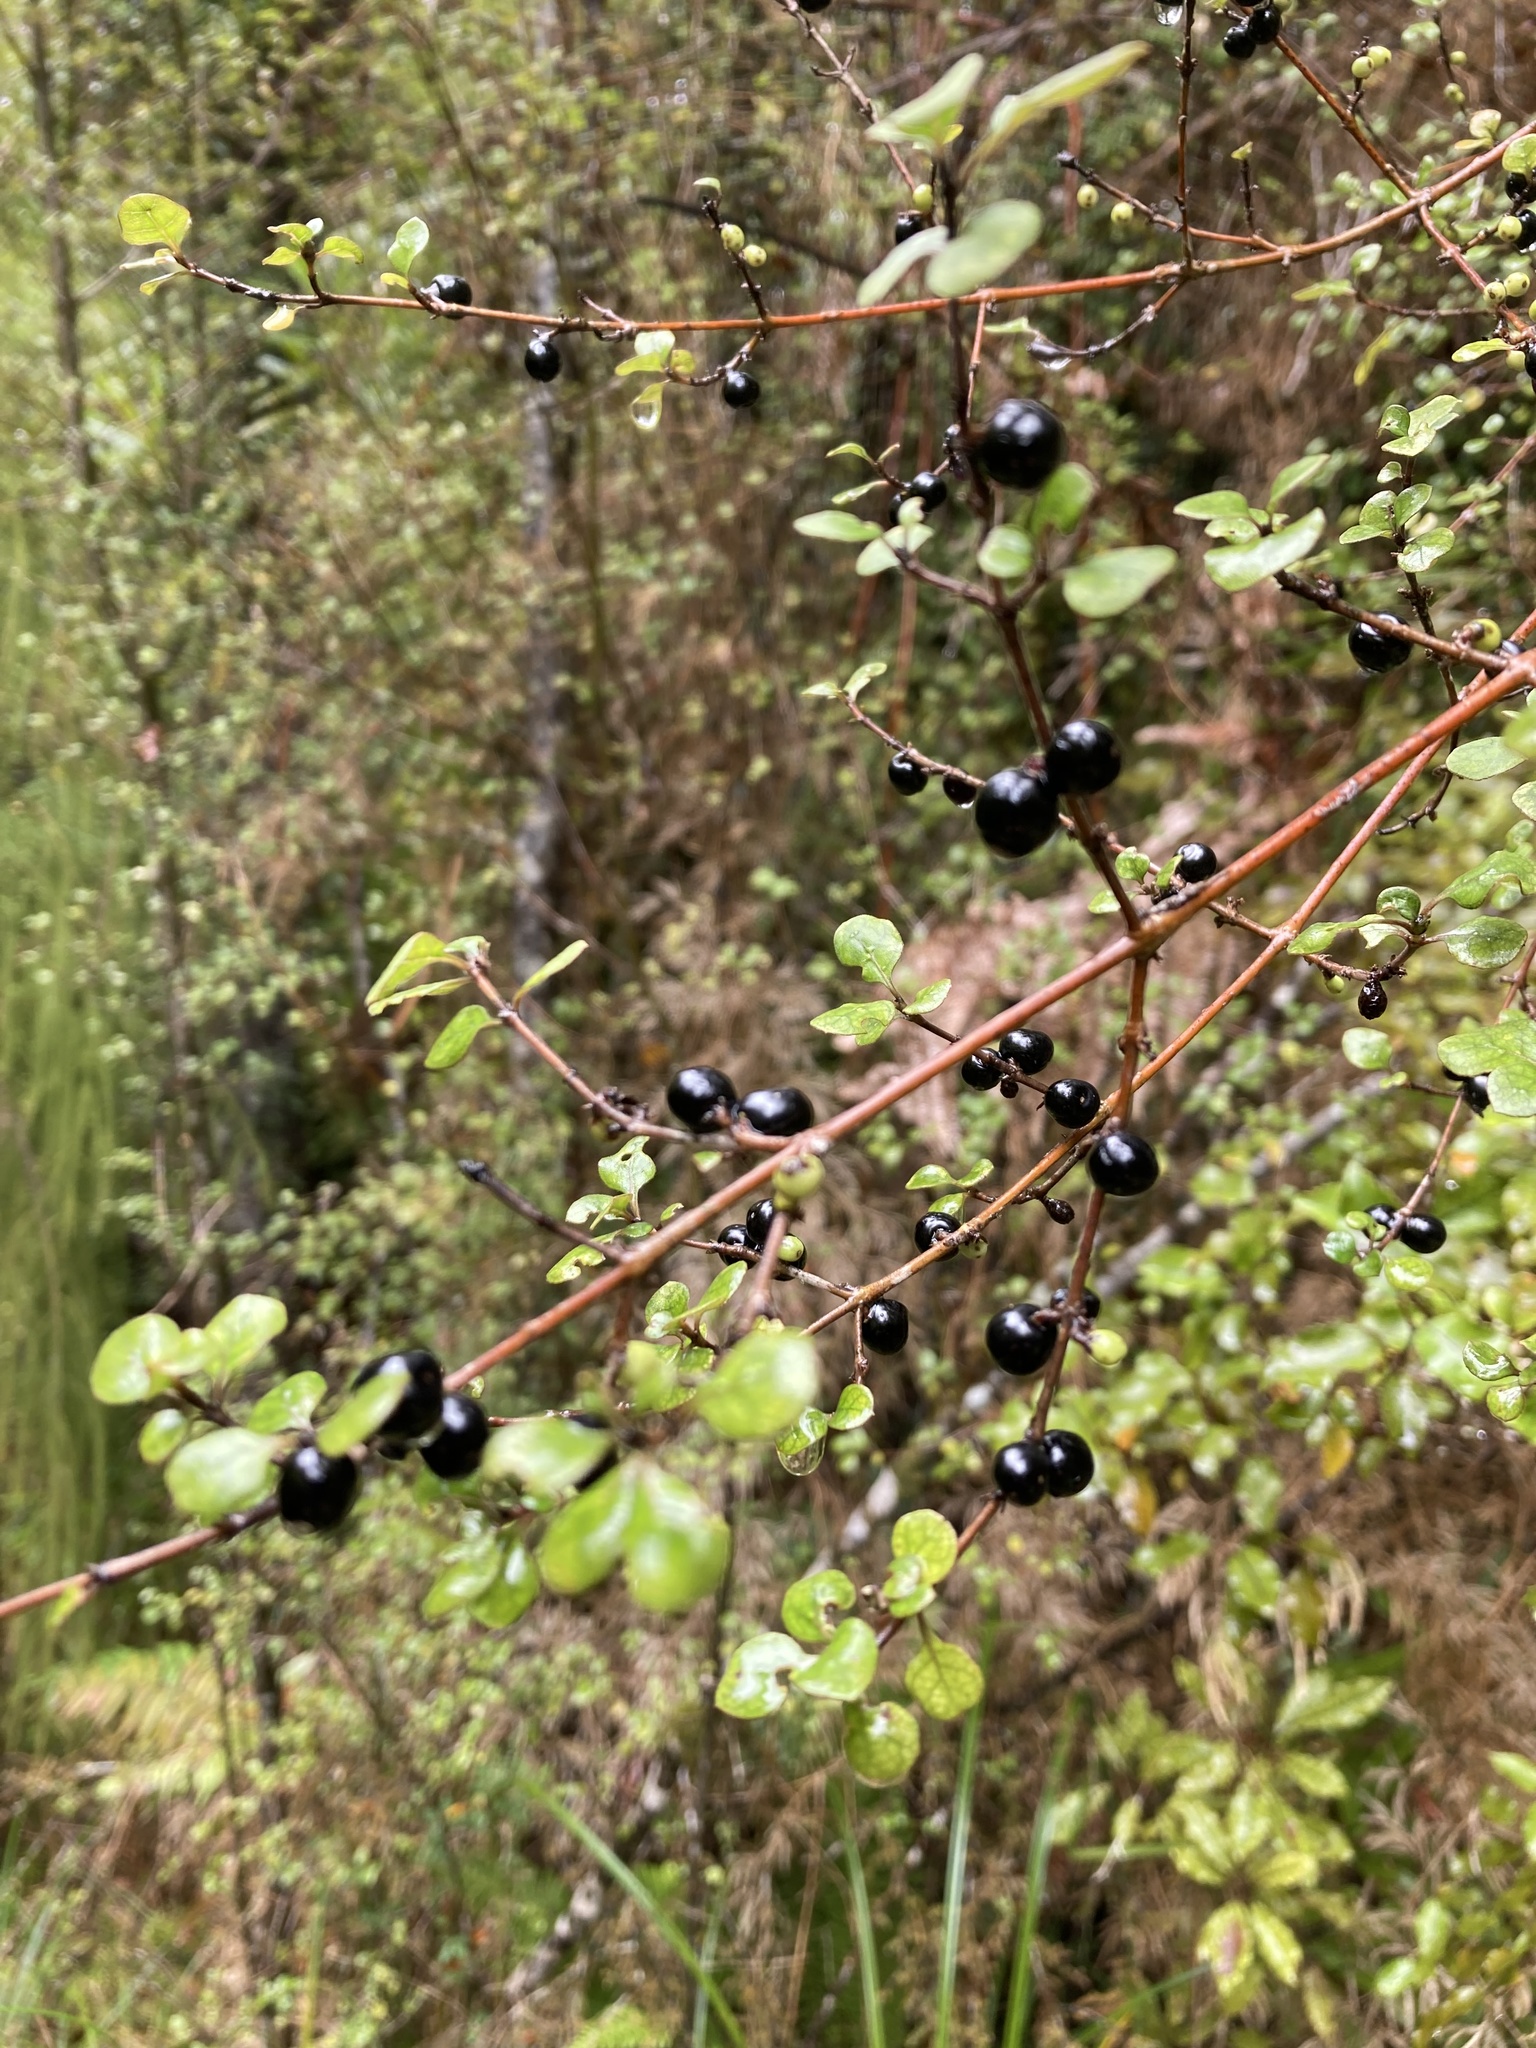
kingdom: Plantae
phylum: Tracheophyta
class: Magnoliopsida
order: Gentianales
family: Rubiaceae
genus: Coprosma
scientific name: Coprosma tenuicaulis
